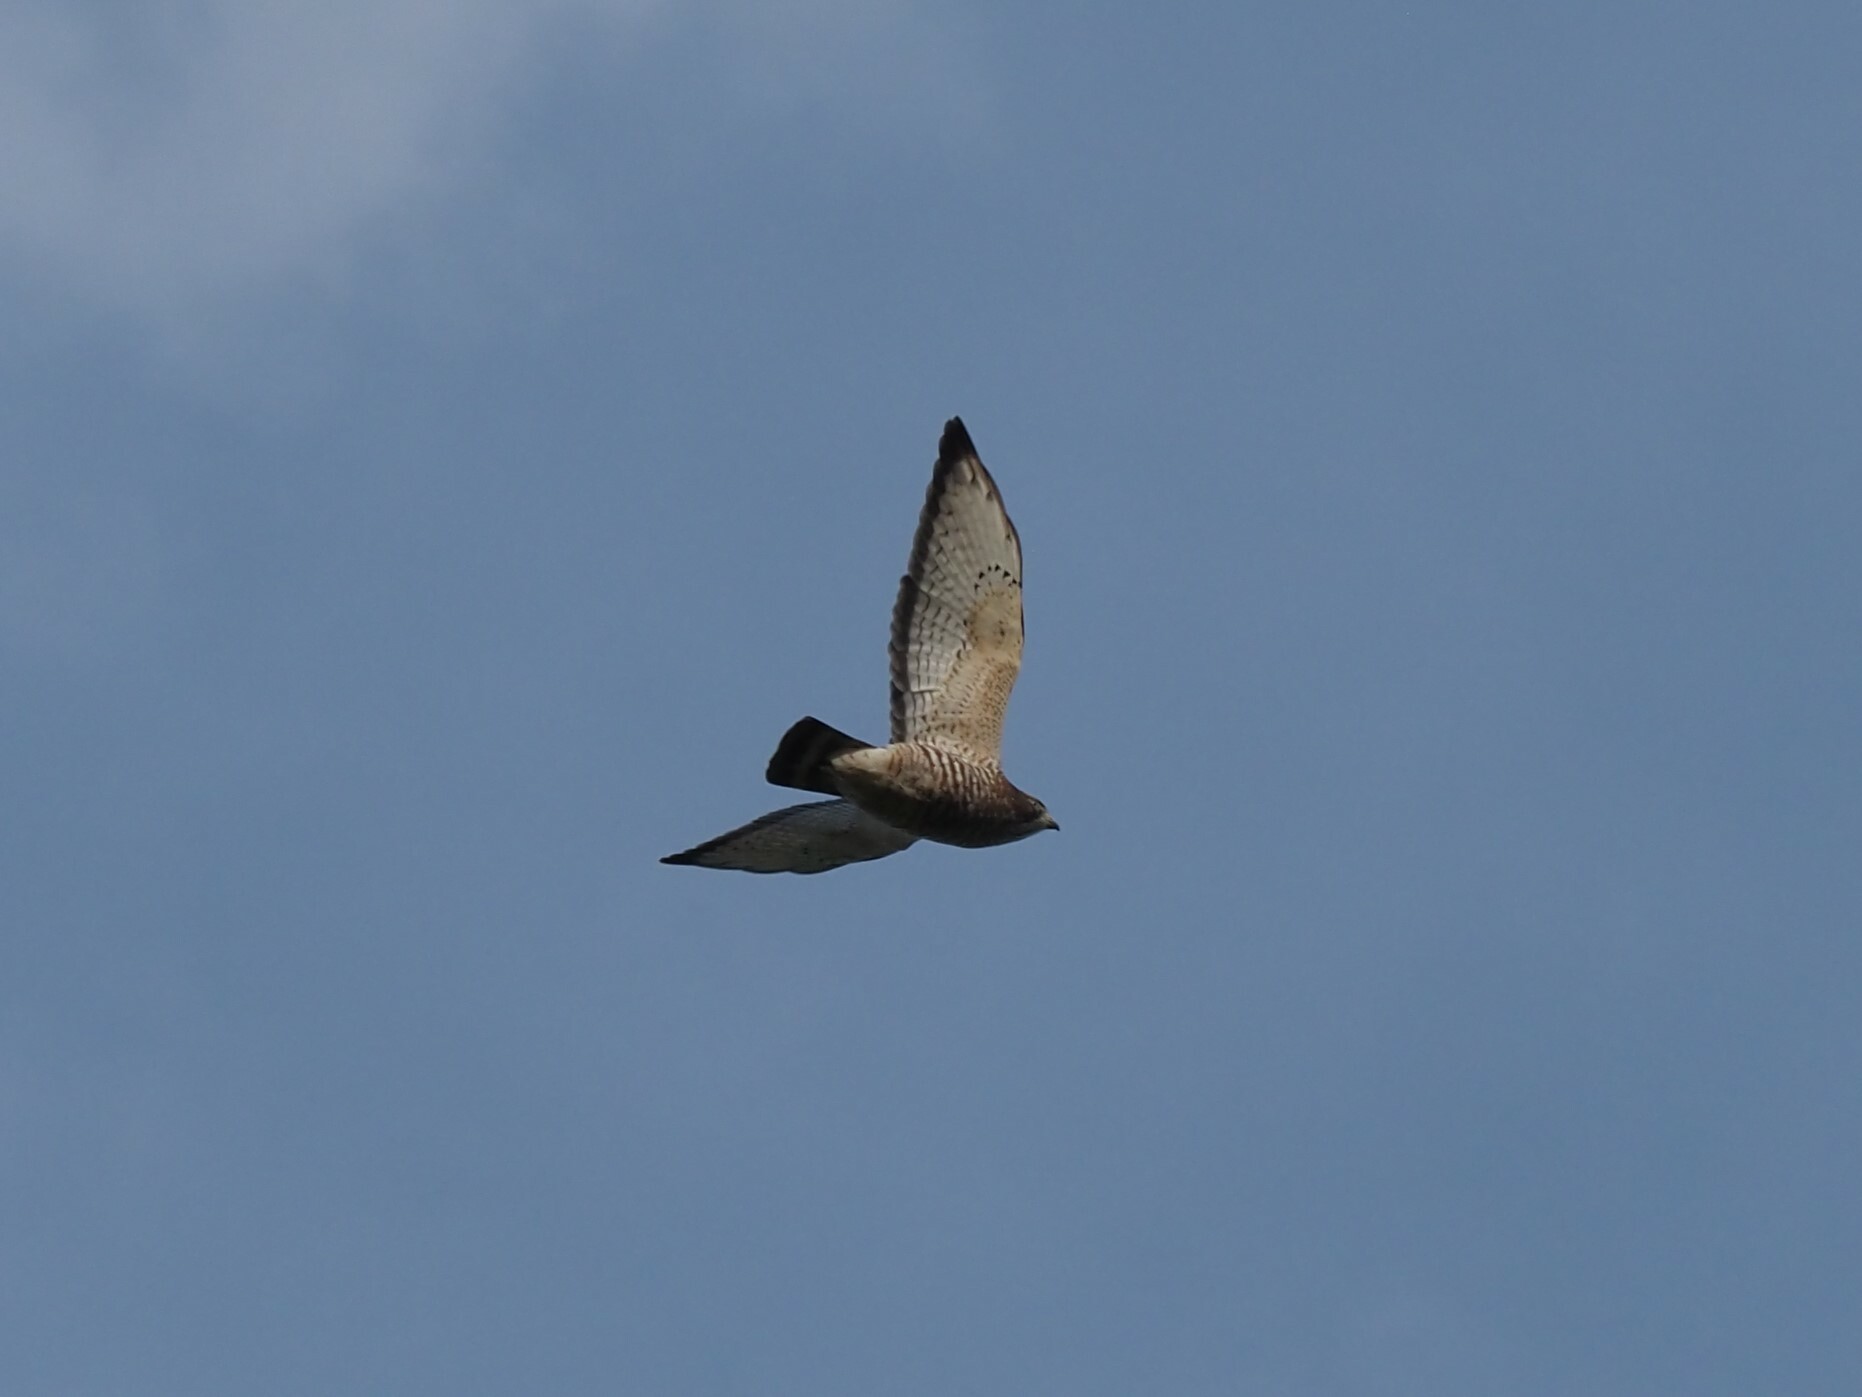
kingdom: Animalia
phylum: Chordata
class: Aves
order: Accipitriformes
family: Accipitridae
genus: Buteo
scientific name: Buteo platypterus
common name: Broad-winged hawk
